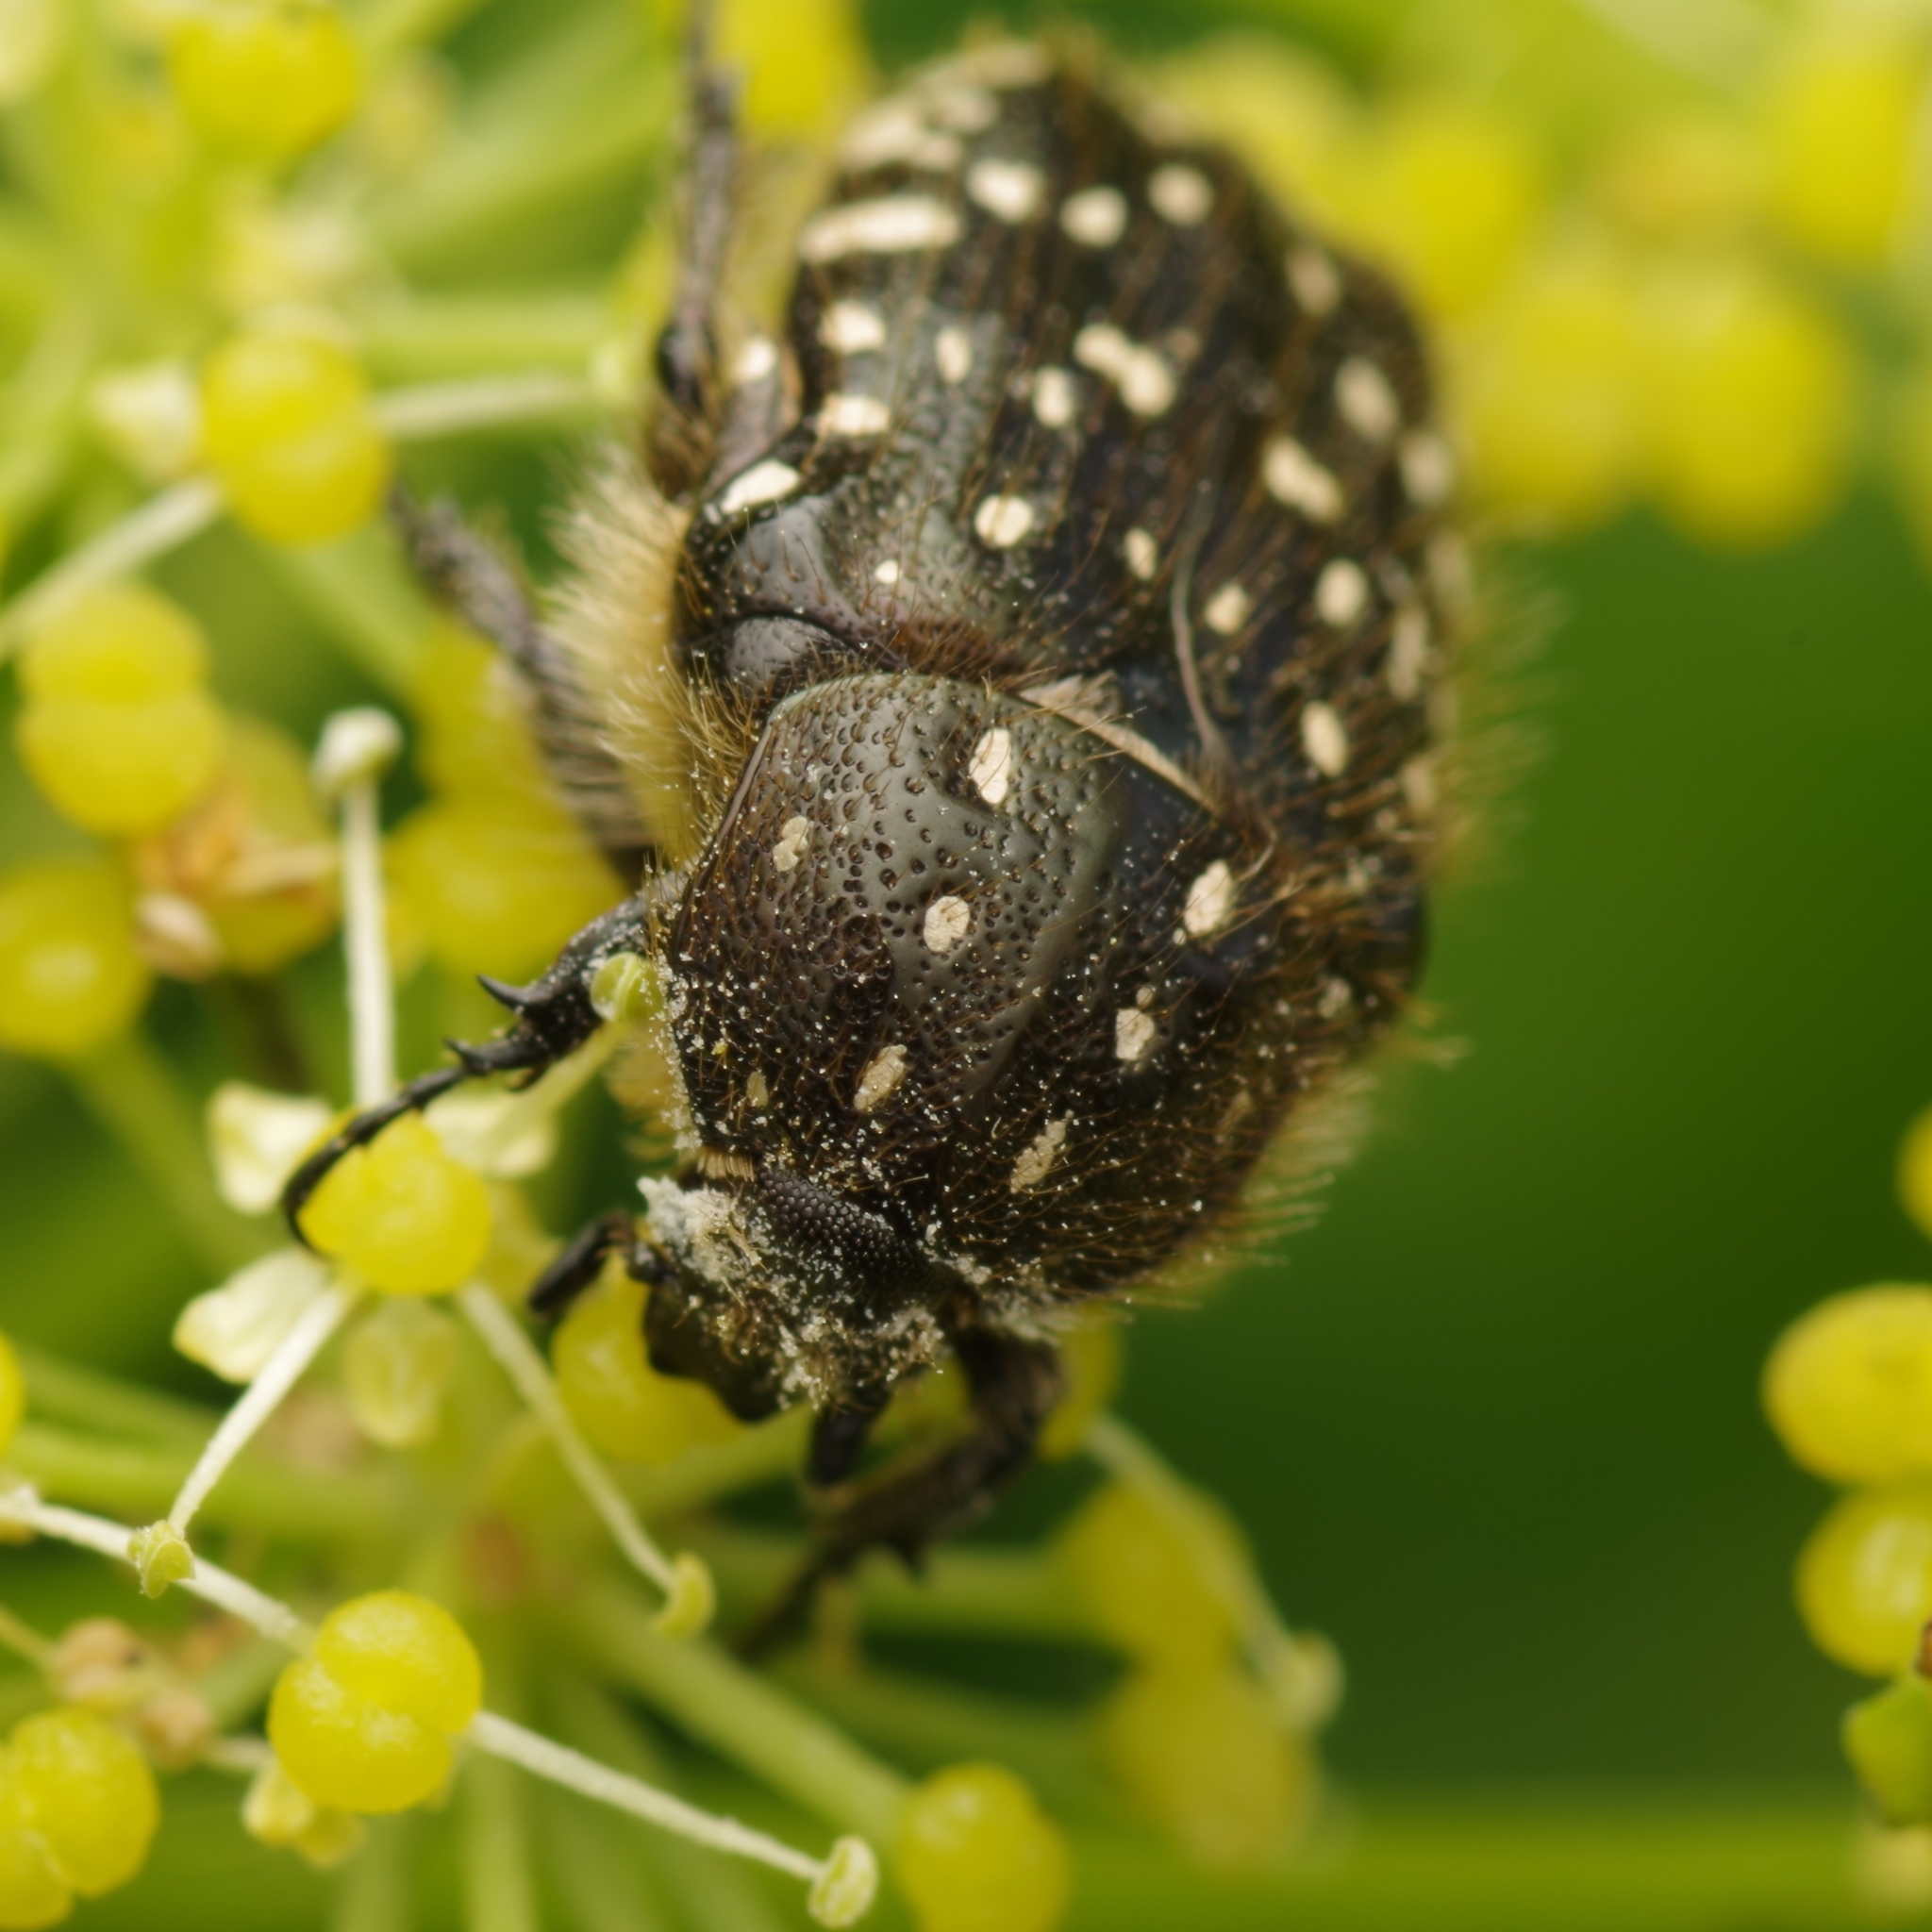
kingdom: Animalia
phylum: Arthropoda
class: Insecta
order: Coleoptera
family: Scarabaeidae
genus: Oxythyrea
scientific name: Oxythyrea funesta
